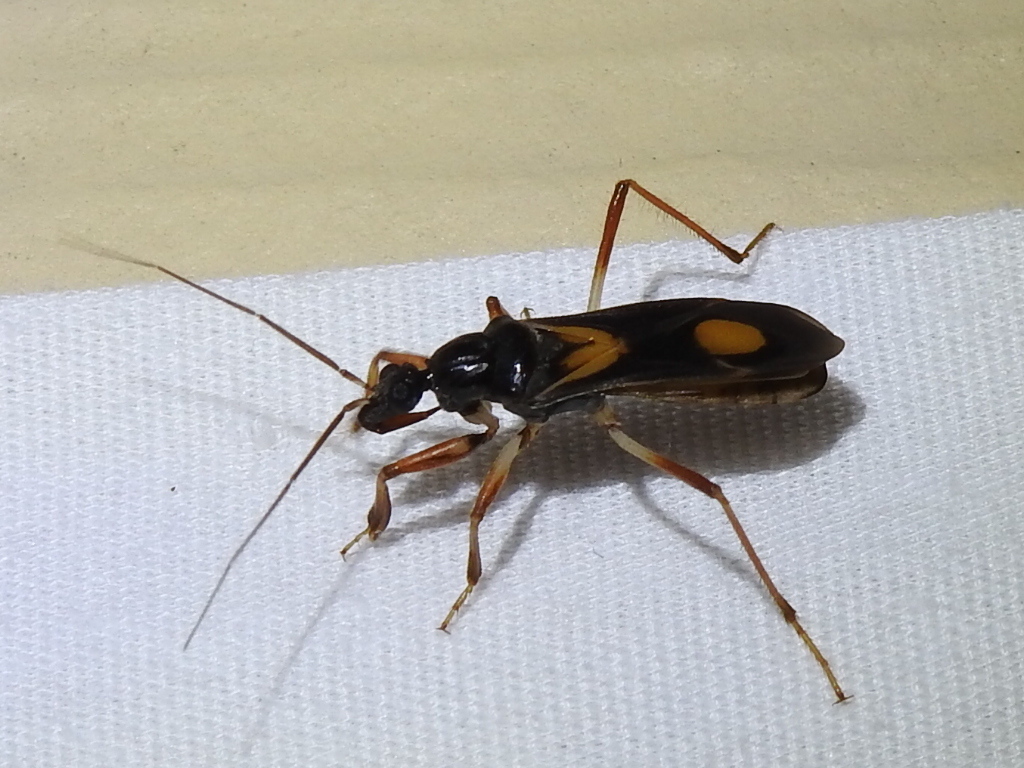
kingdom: Animalia
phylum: Arthropoda
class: Insecta
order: Hemiptera
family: Reduviidae
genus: Rasahus
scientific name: Rasahus hamatus
